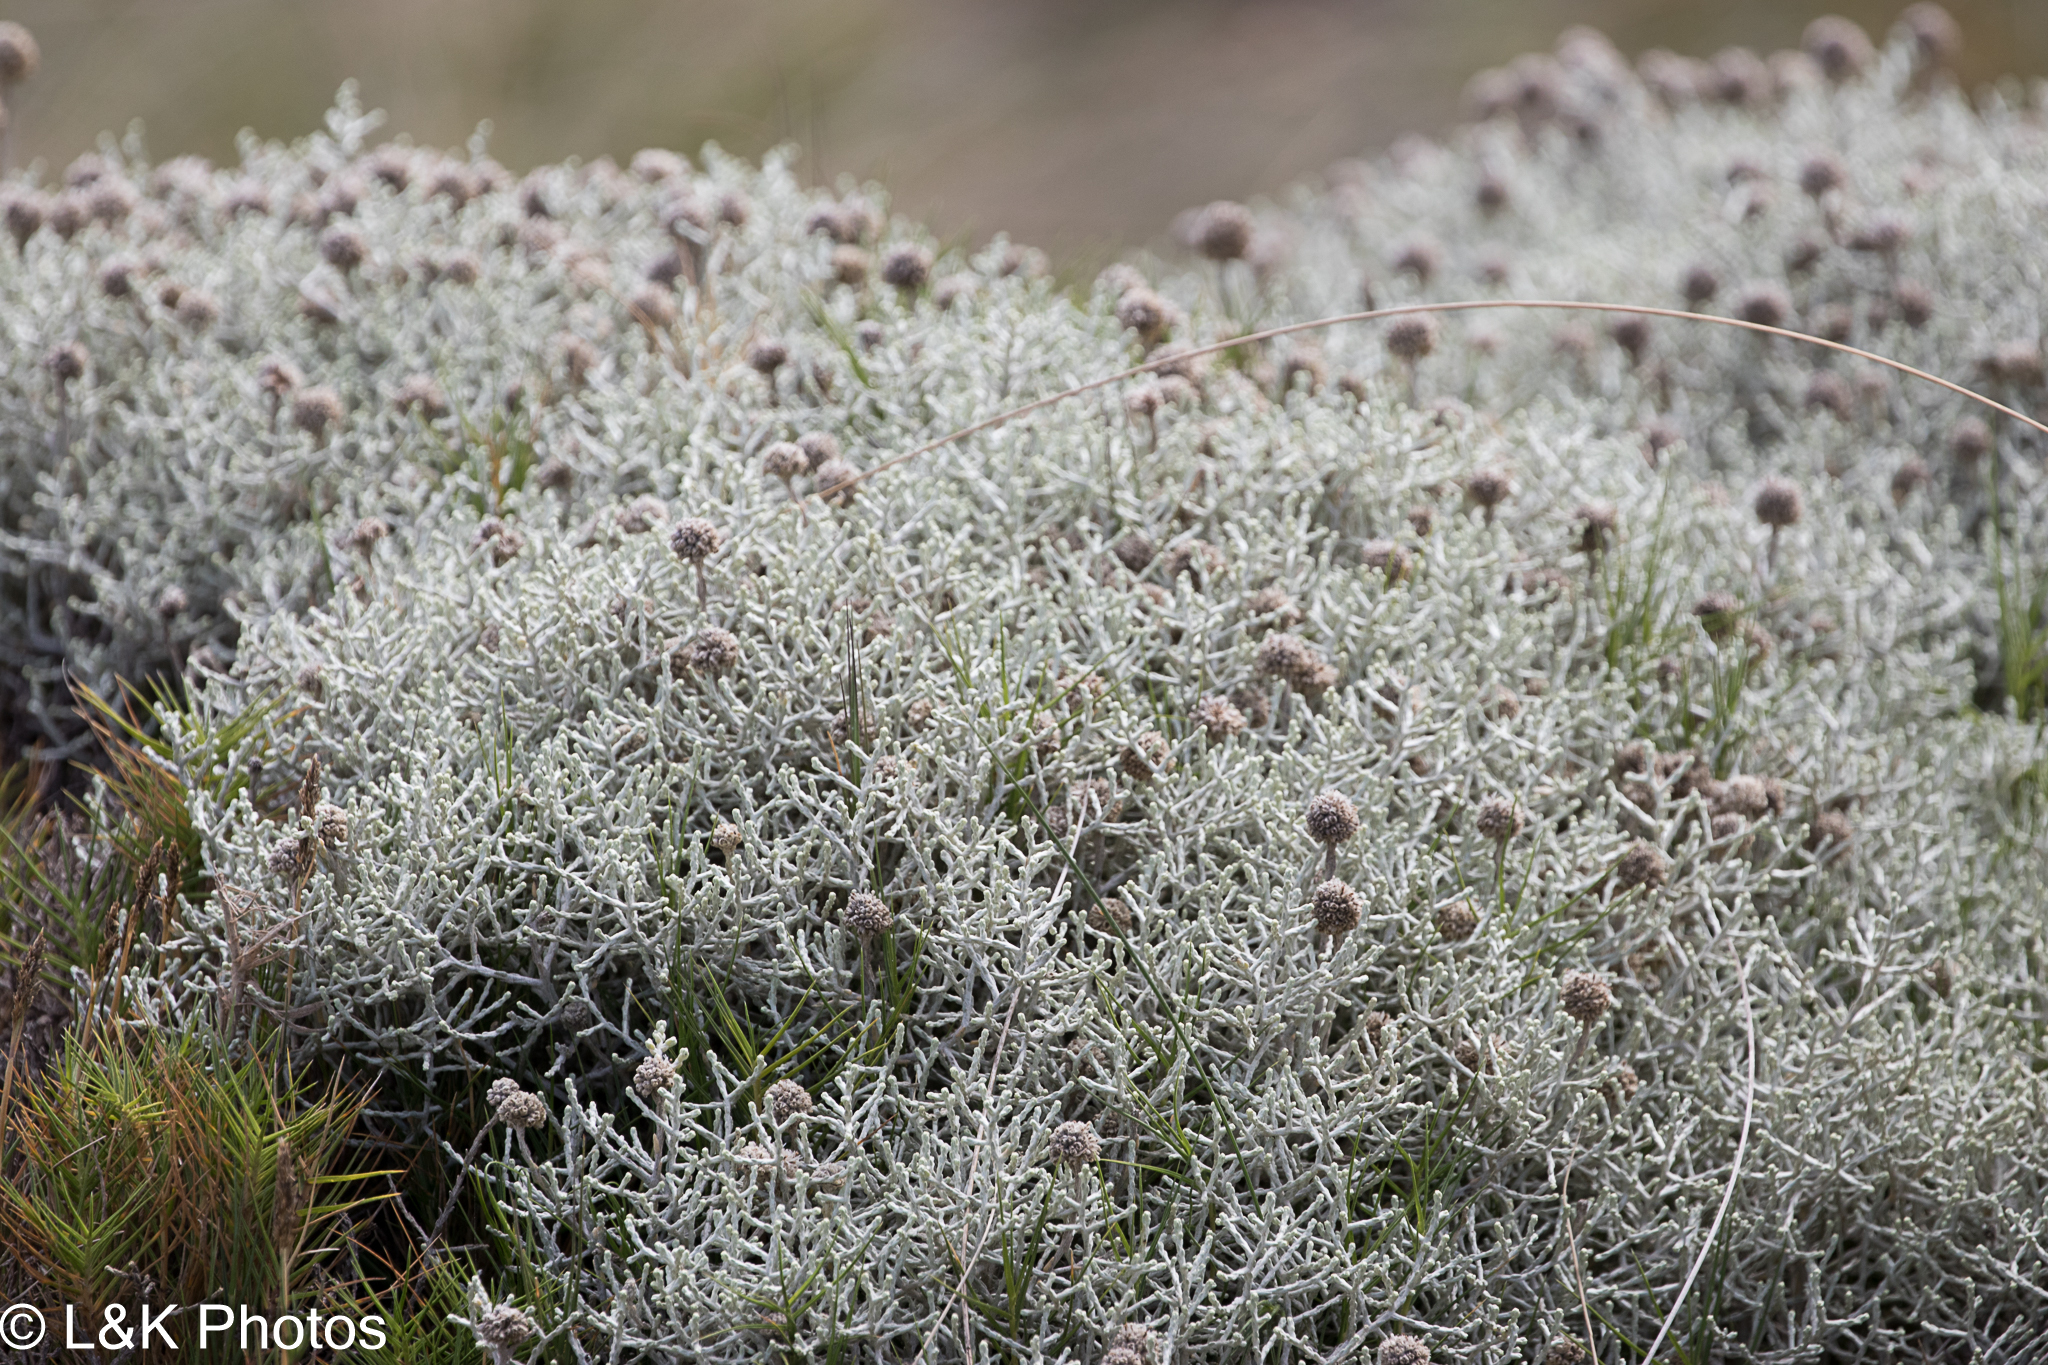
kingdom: Plantae
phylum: Tracheophyta
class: Magnoliopsida
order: Asterales
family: Asteraceae
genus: Calocephalus
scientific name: Calocephalus brownii
